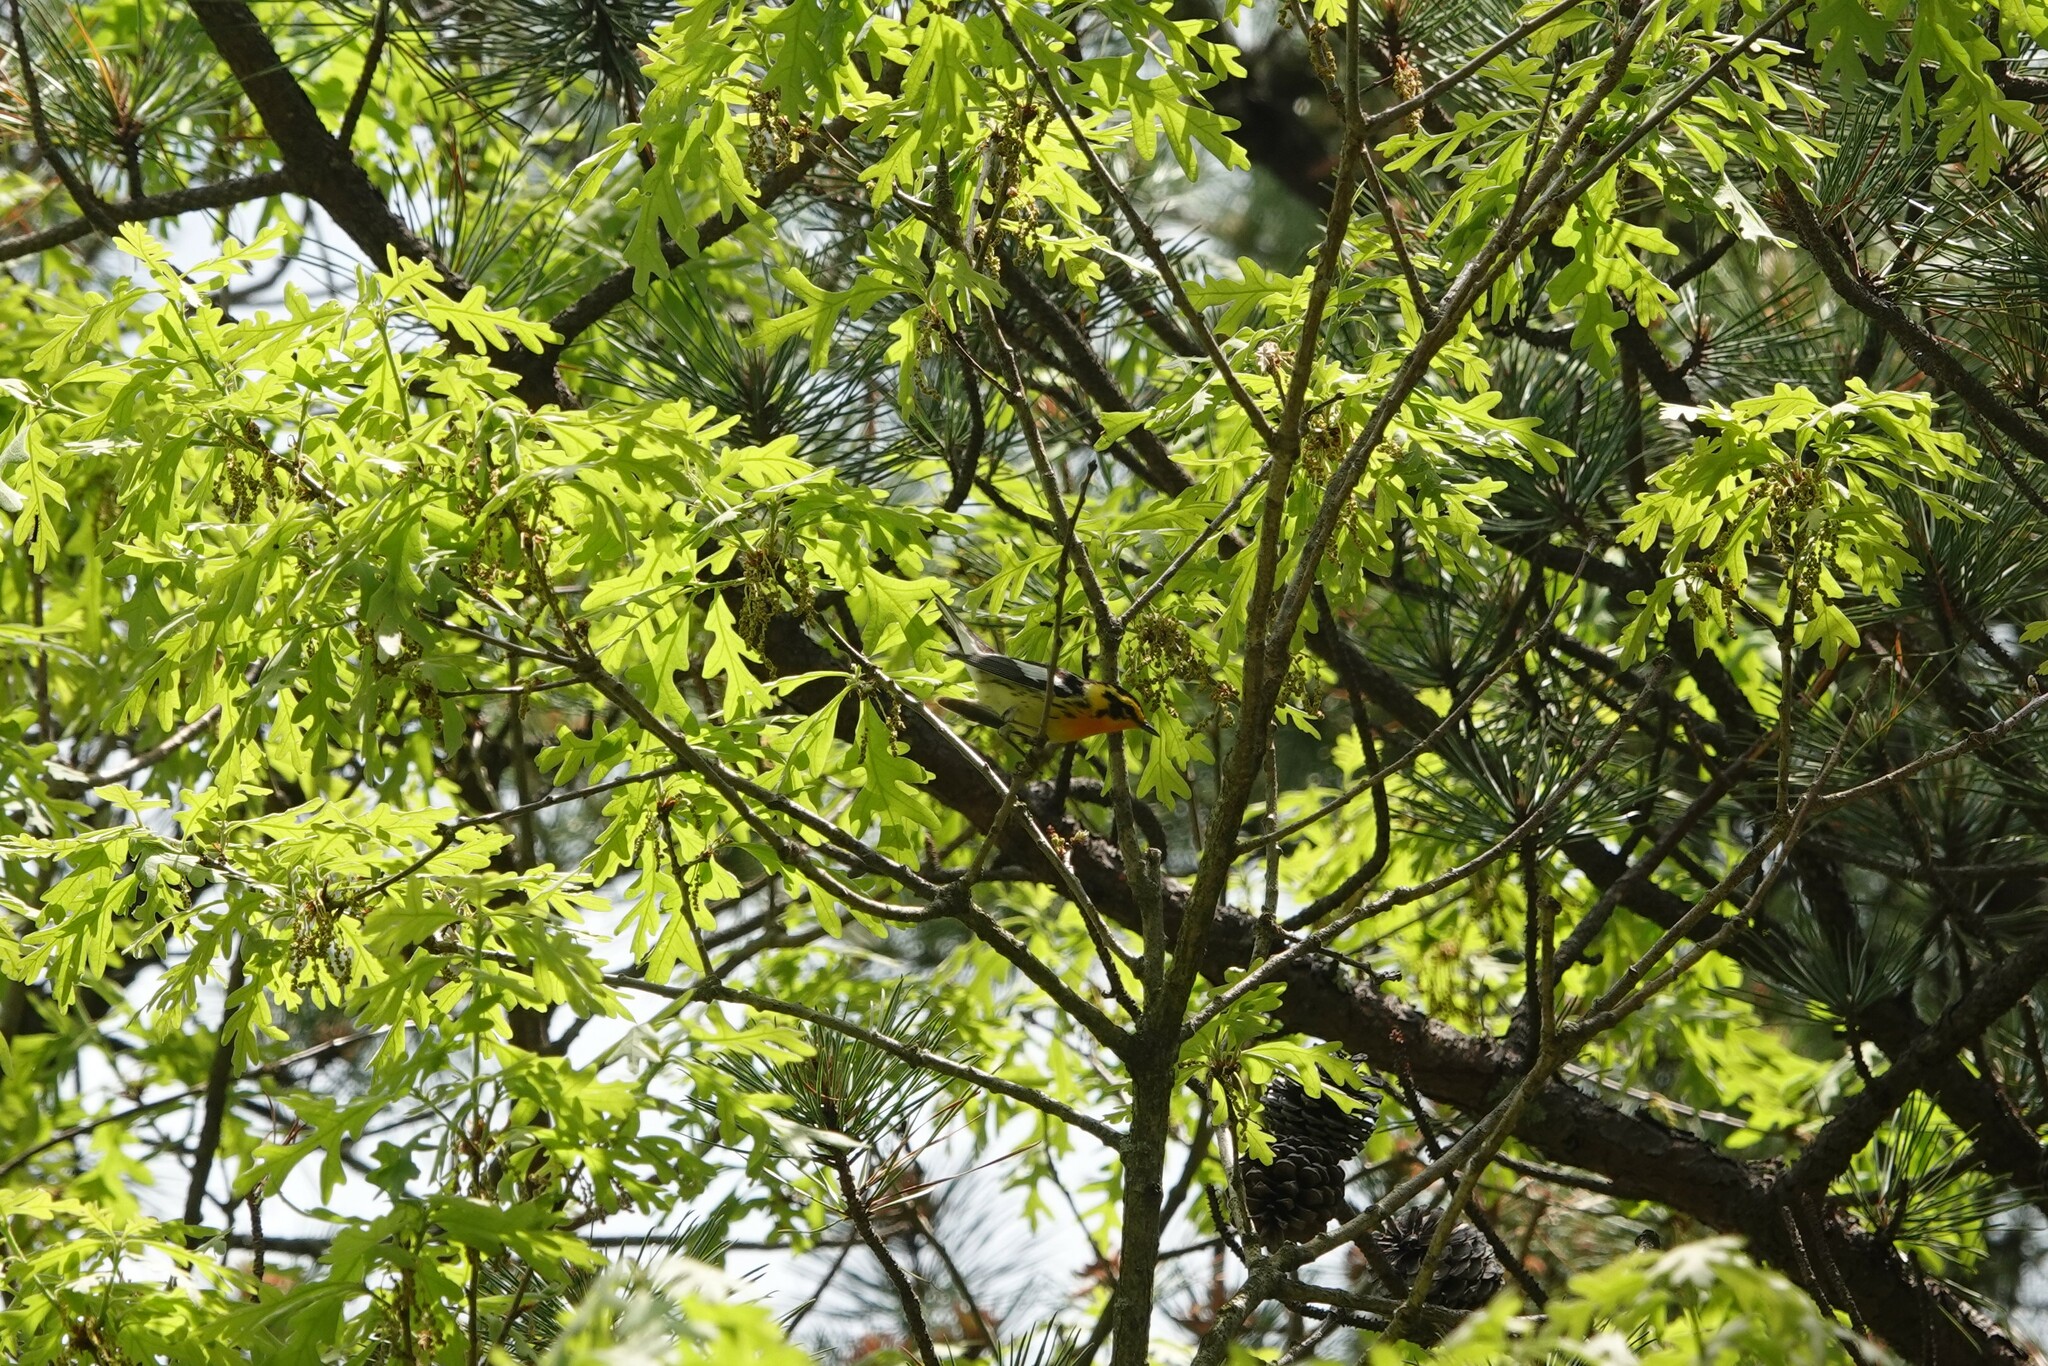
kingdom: Animalia
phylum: Chordata
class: Aves
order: Passeriformes
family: Parulidae
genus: Setophaga
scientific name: Setophaga fusca
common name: Blackburnian warbler
